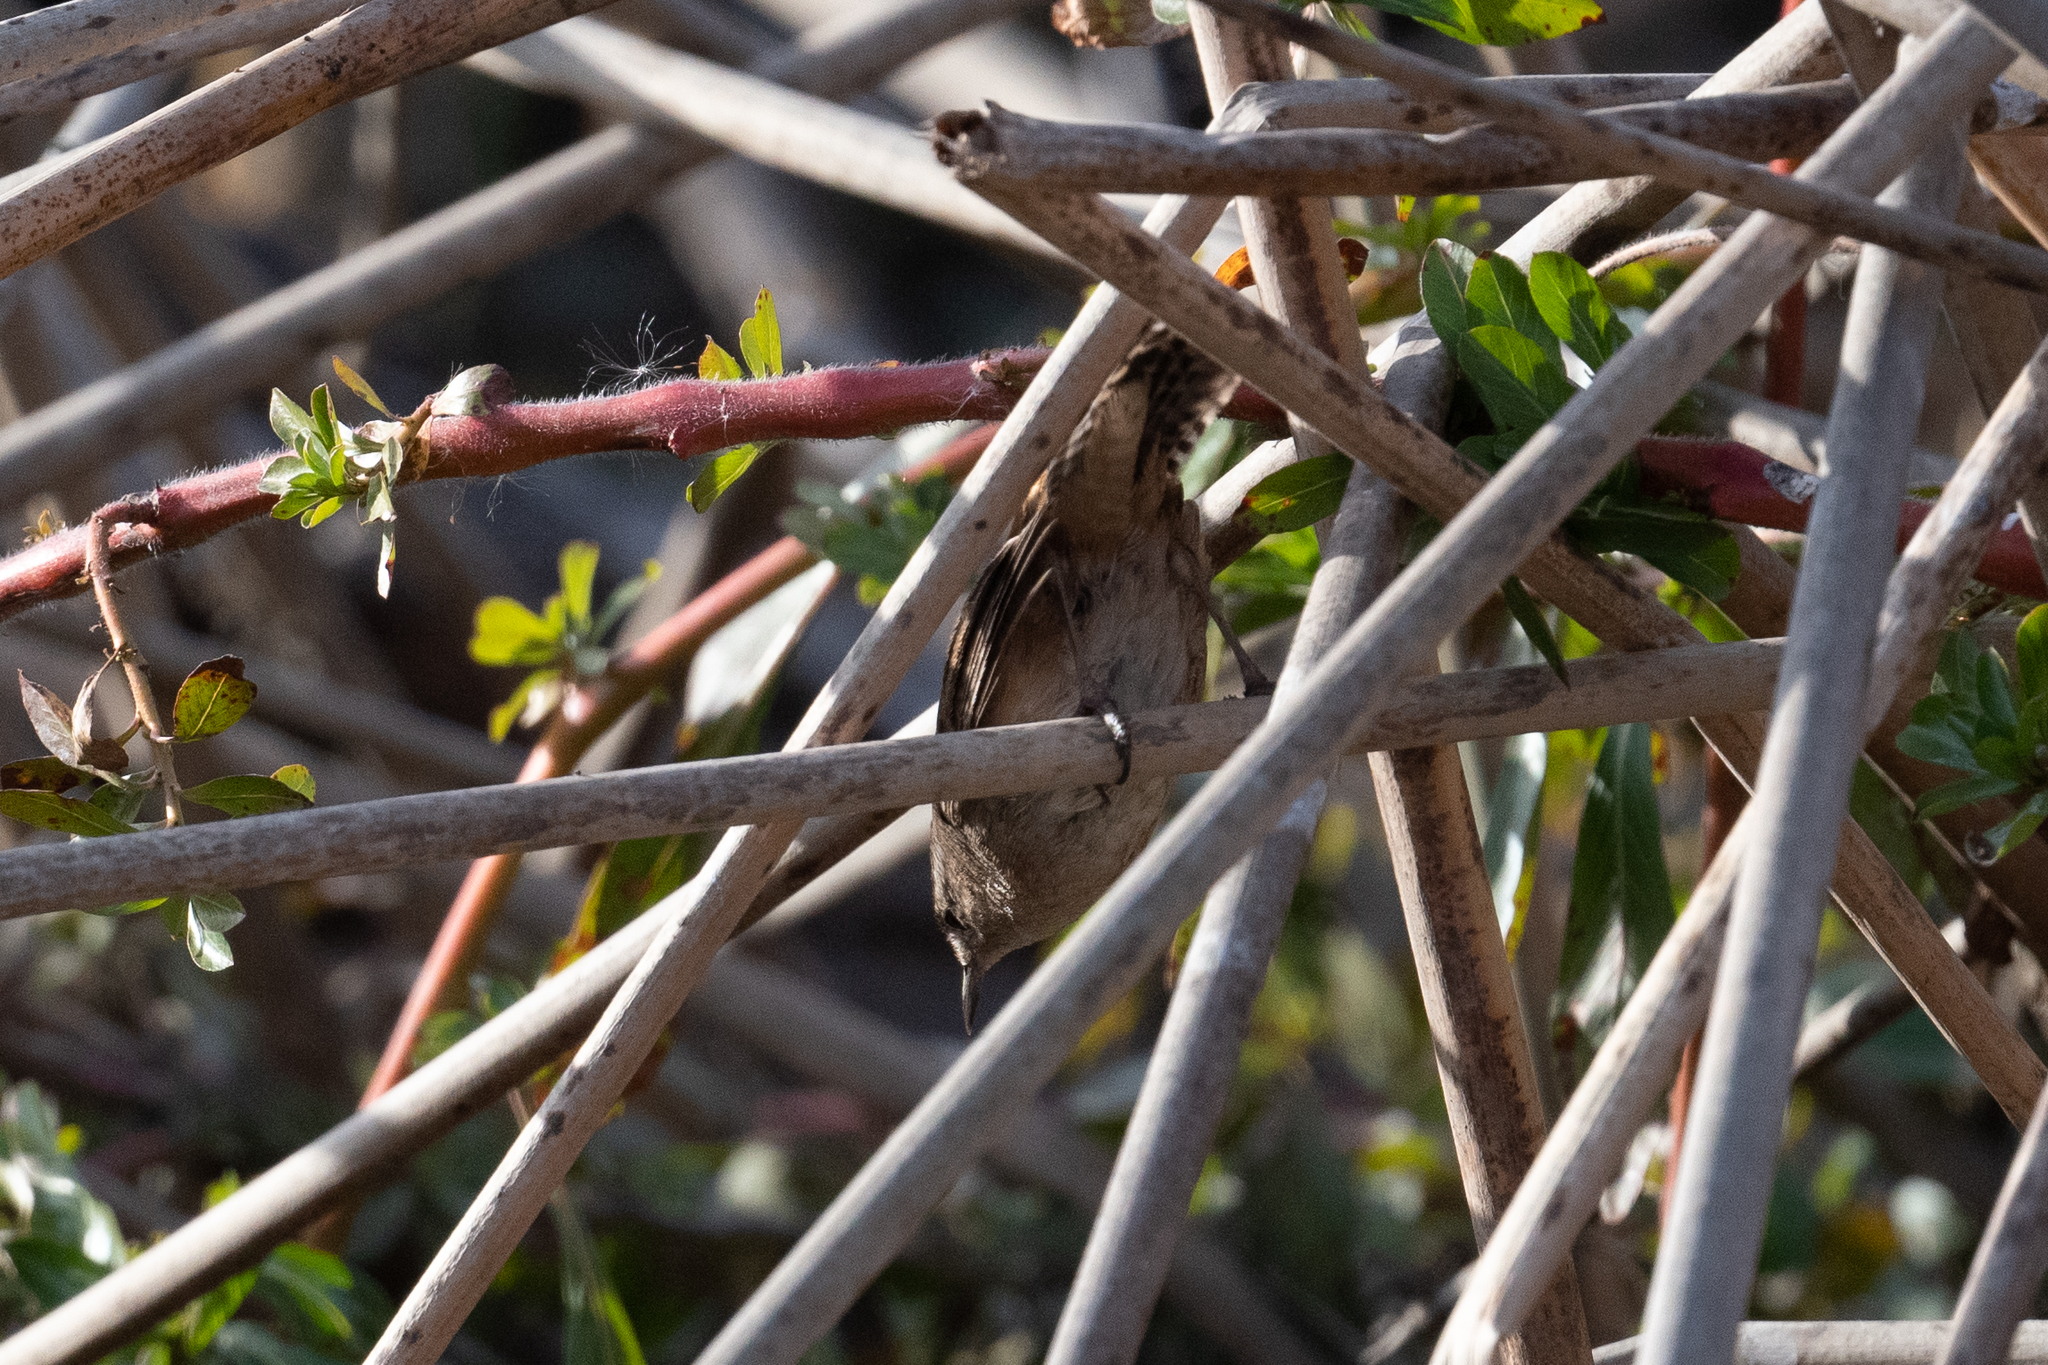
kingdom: Animalia
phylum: Chordata
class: Aves
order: Passeriformes
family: Troglodytidae
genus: Cistothorus
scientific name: Cistothorus palustris
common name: Marsh wren
